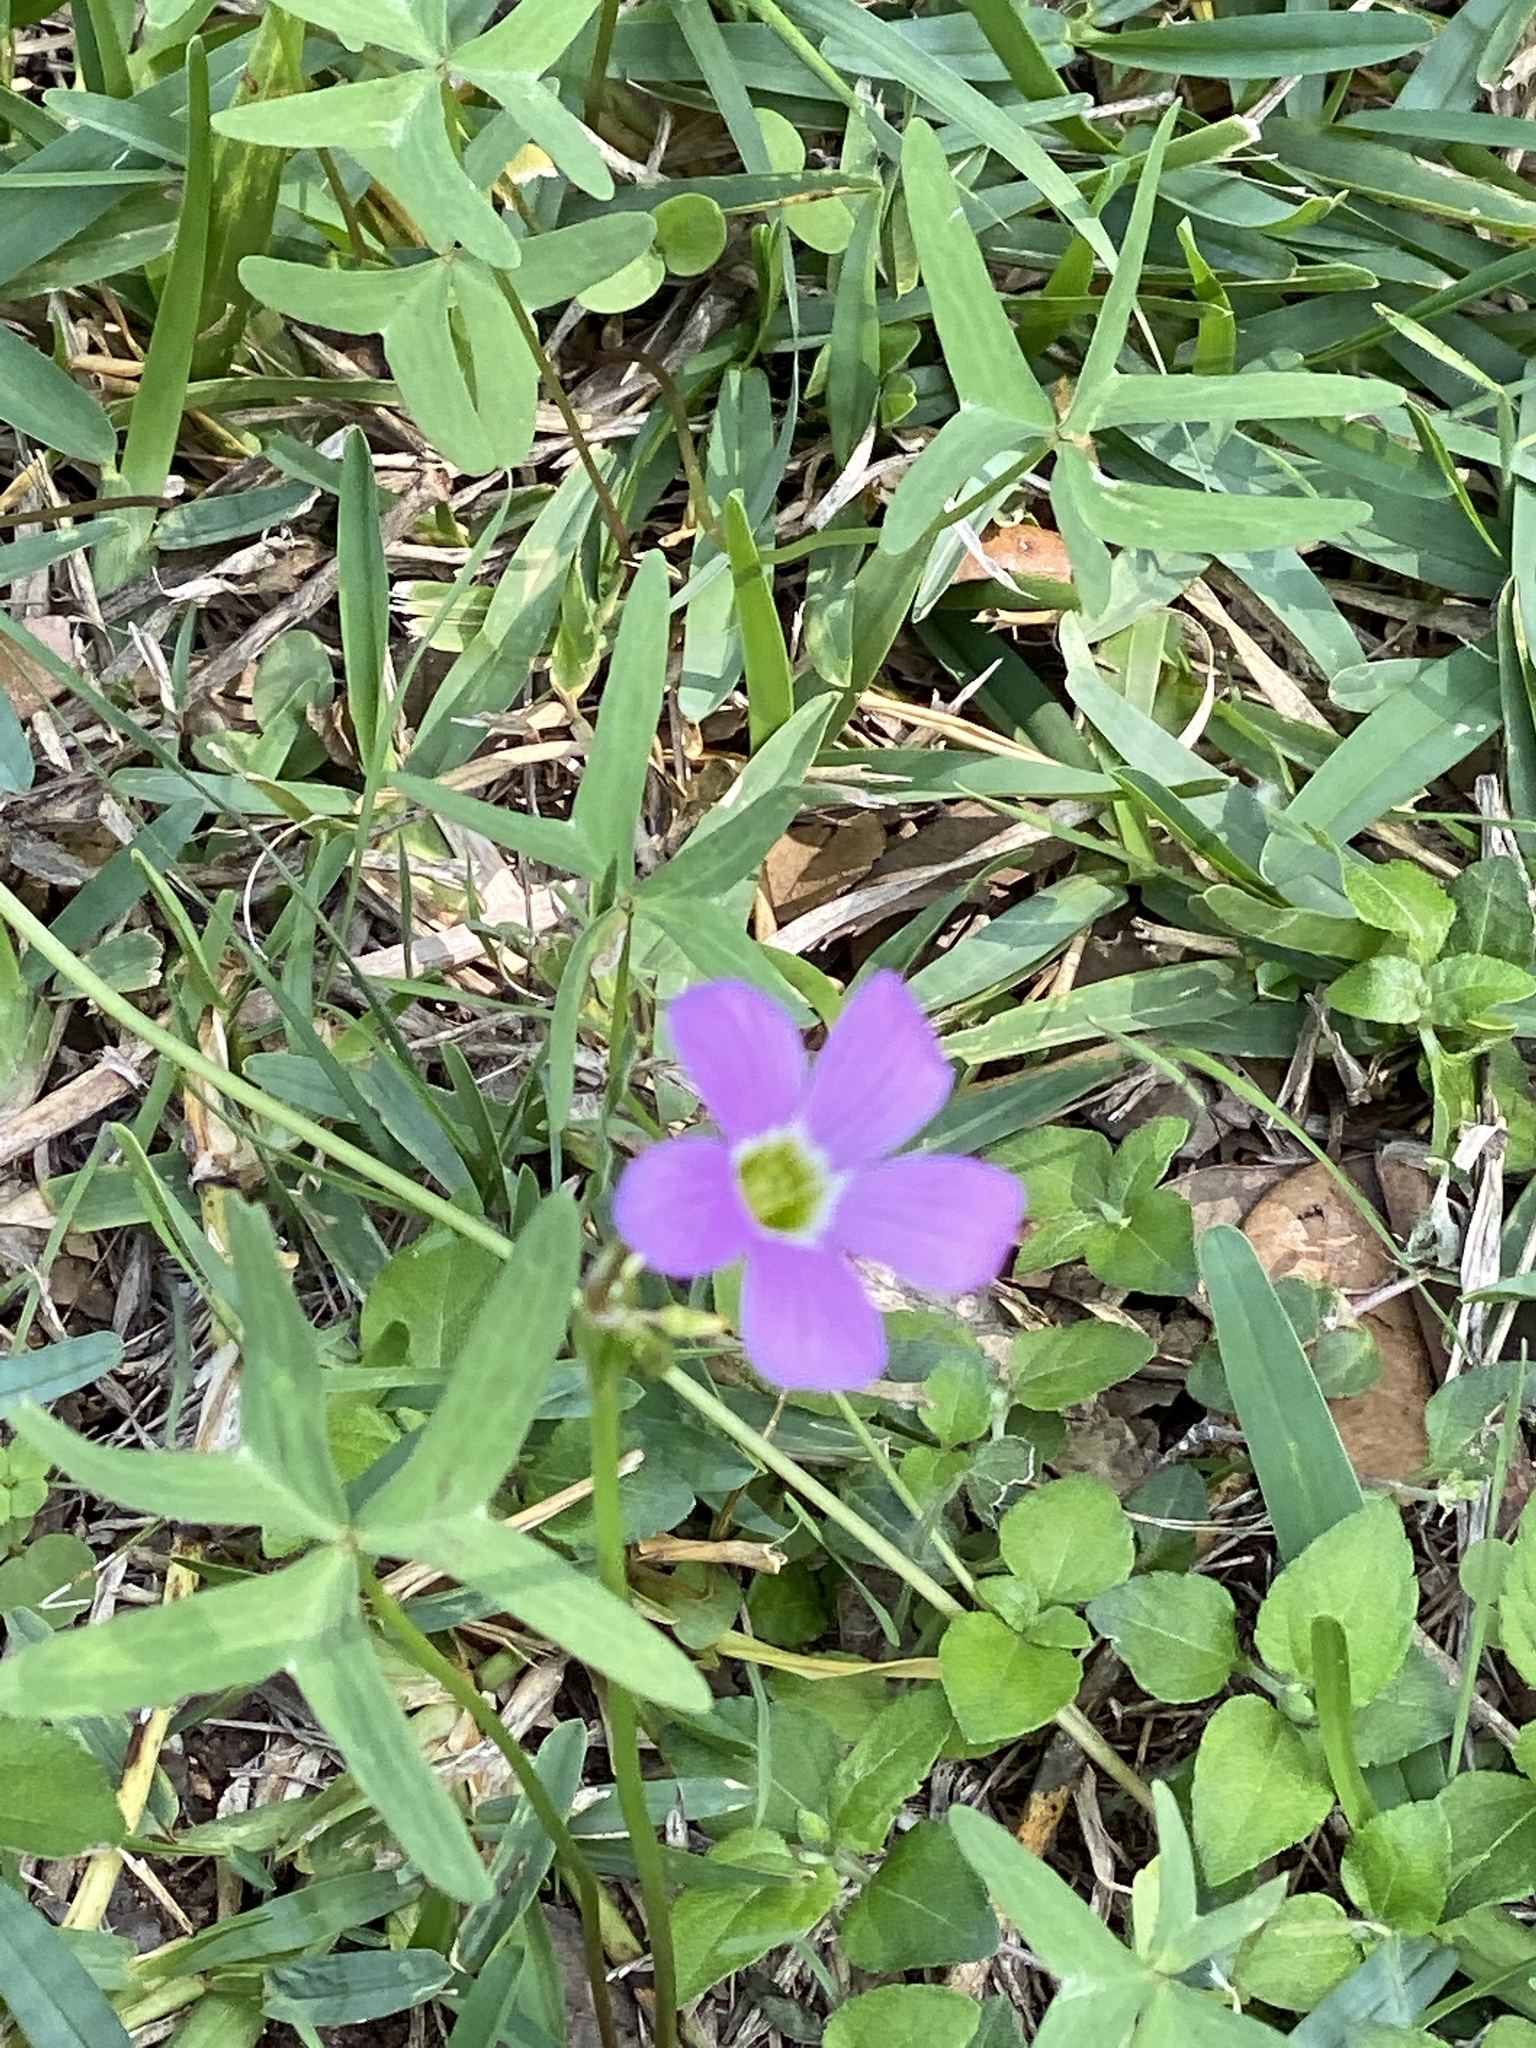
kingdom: Plantae
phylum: Tracheophyta
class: Magnoliopsida
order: Oxalidales
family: Oxalidaceae
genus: Oxalis
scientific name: Oxalis drummondii
